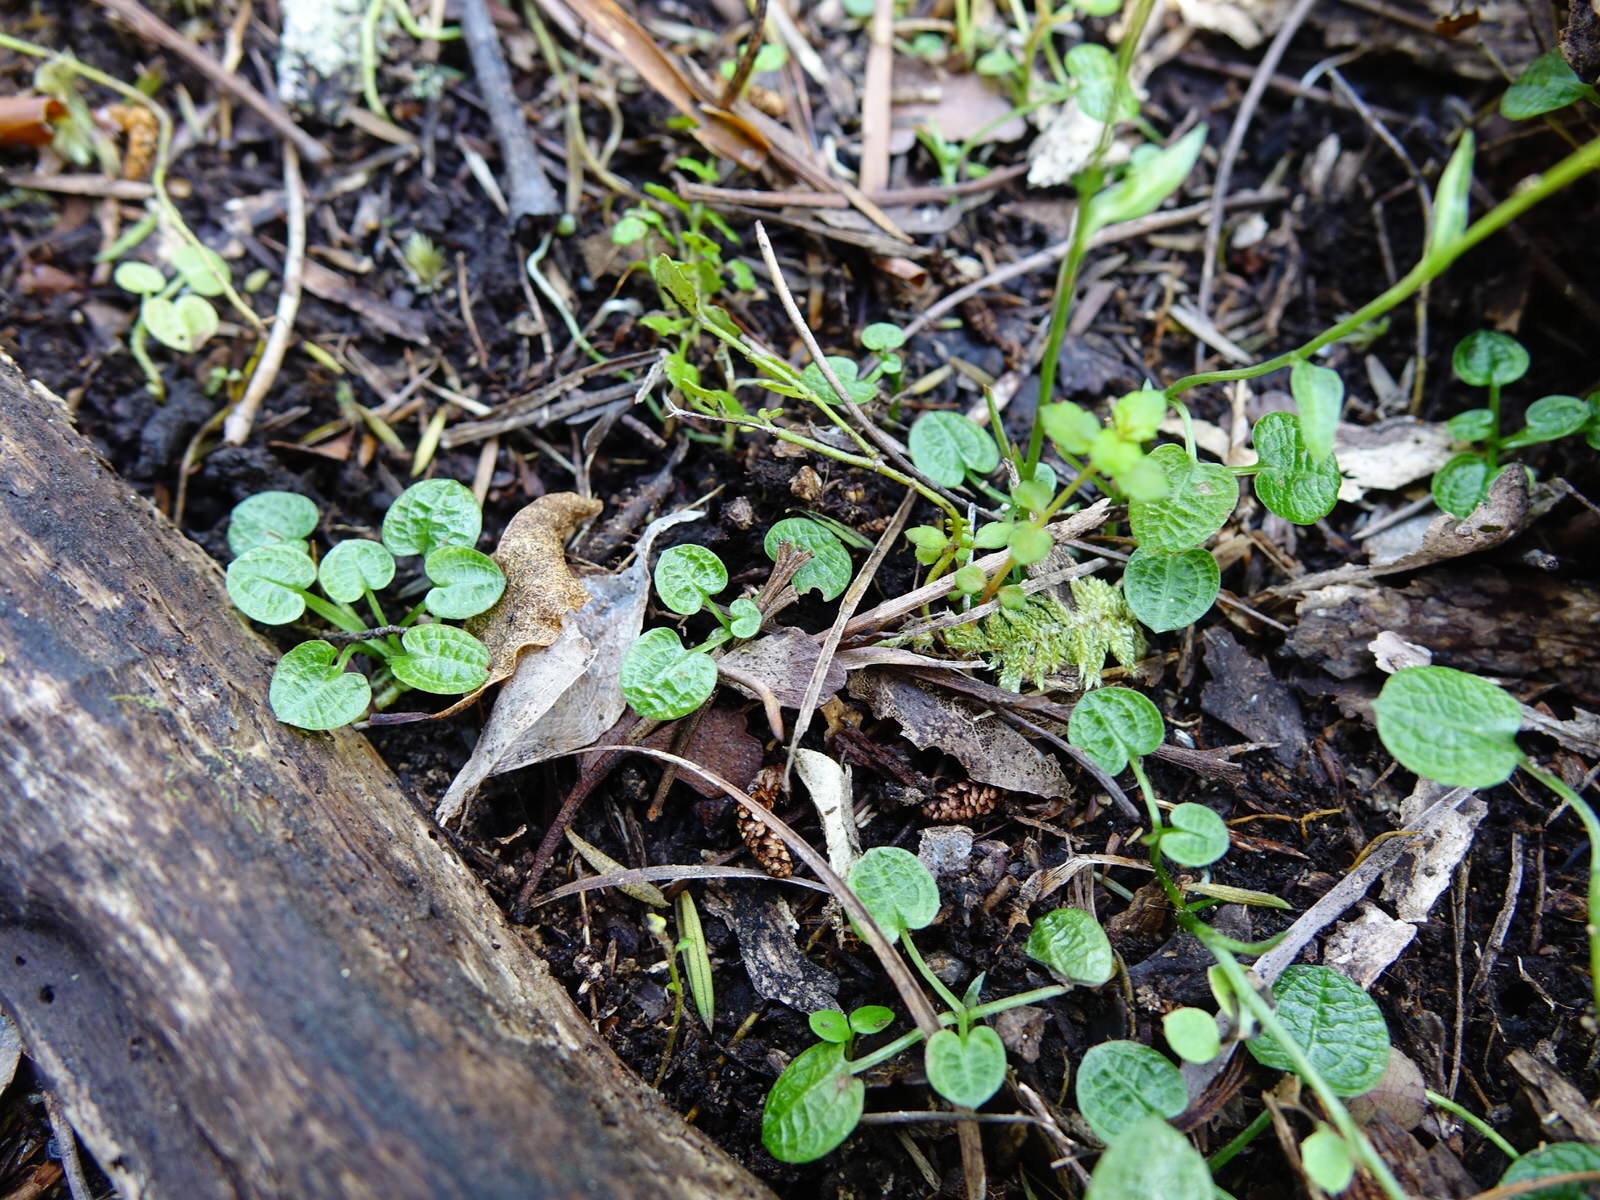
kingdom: Plantae
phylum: Tracheophyta
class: Liliopsida
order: Asparagales
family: Orchidaceae
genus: Pterostylis
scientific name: Pterostylis trullifolia
